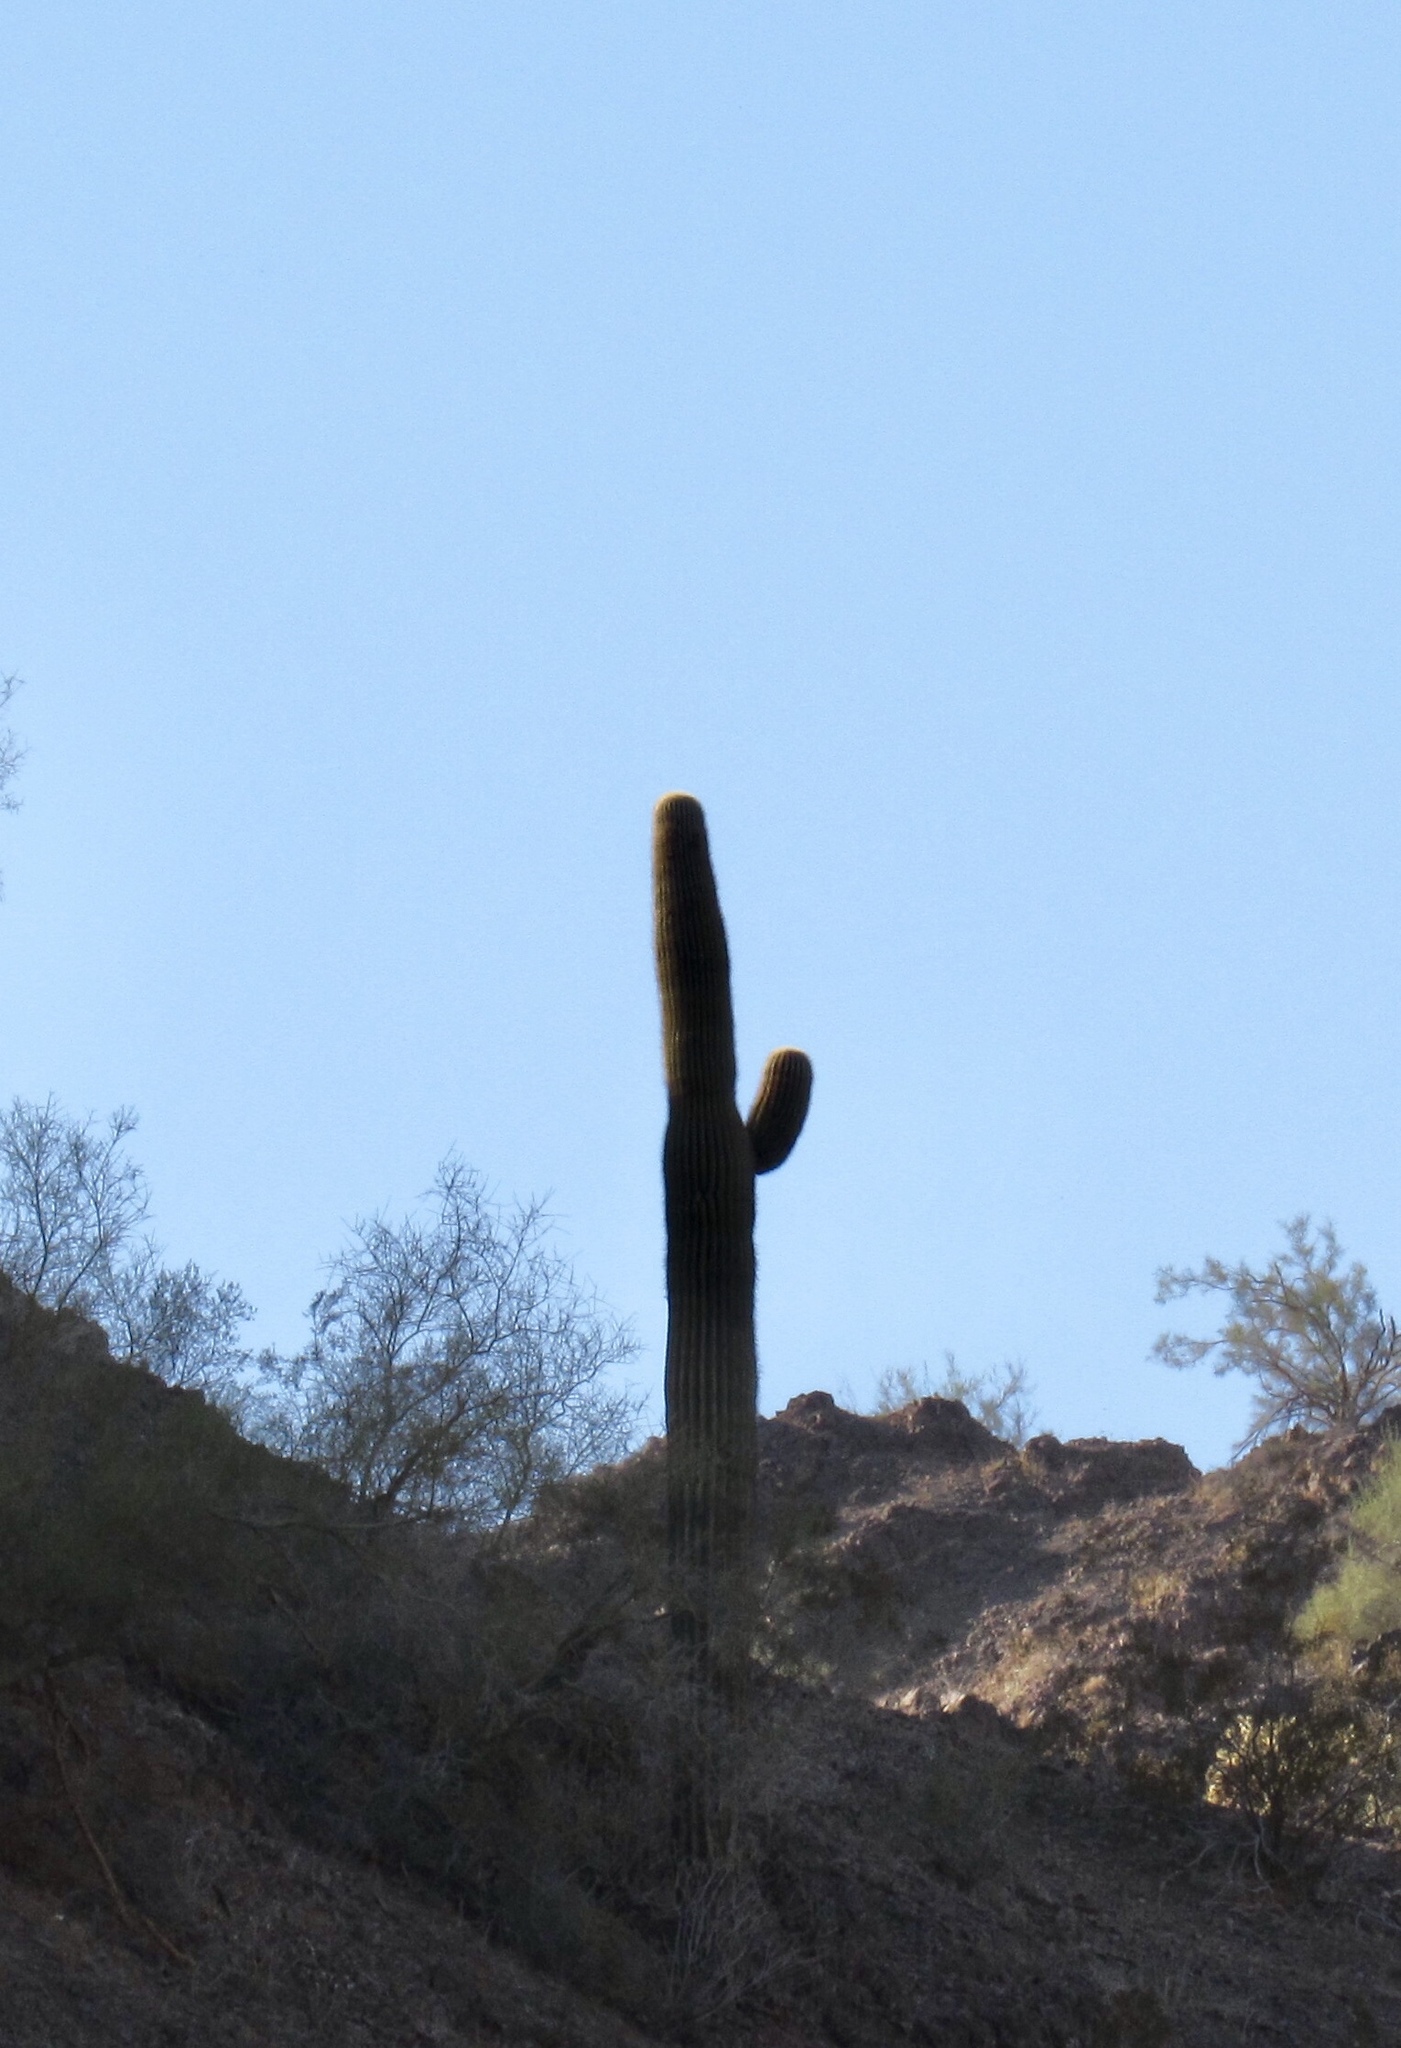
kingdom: Plantae
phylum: Tracheophyta
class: Magnoliopsida
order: Caryophyllales
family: Cactaceae
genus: Carnegiea
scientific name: Carnegiea gigantea
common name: Saguaro
